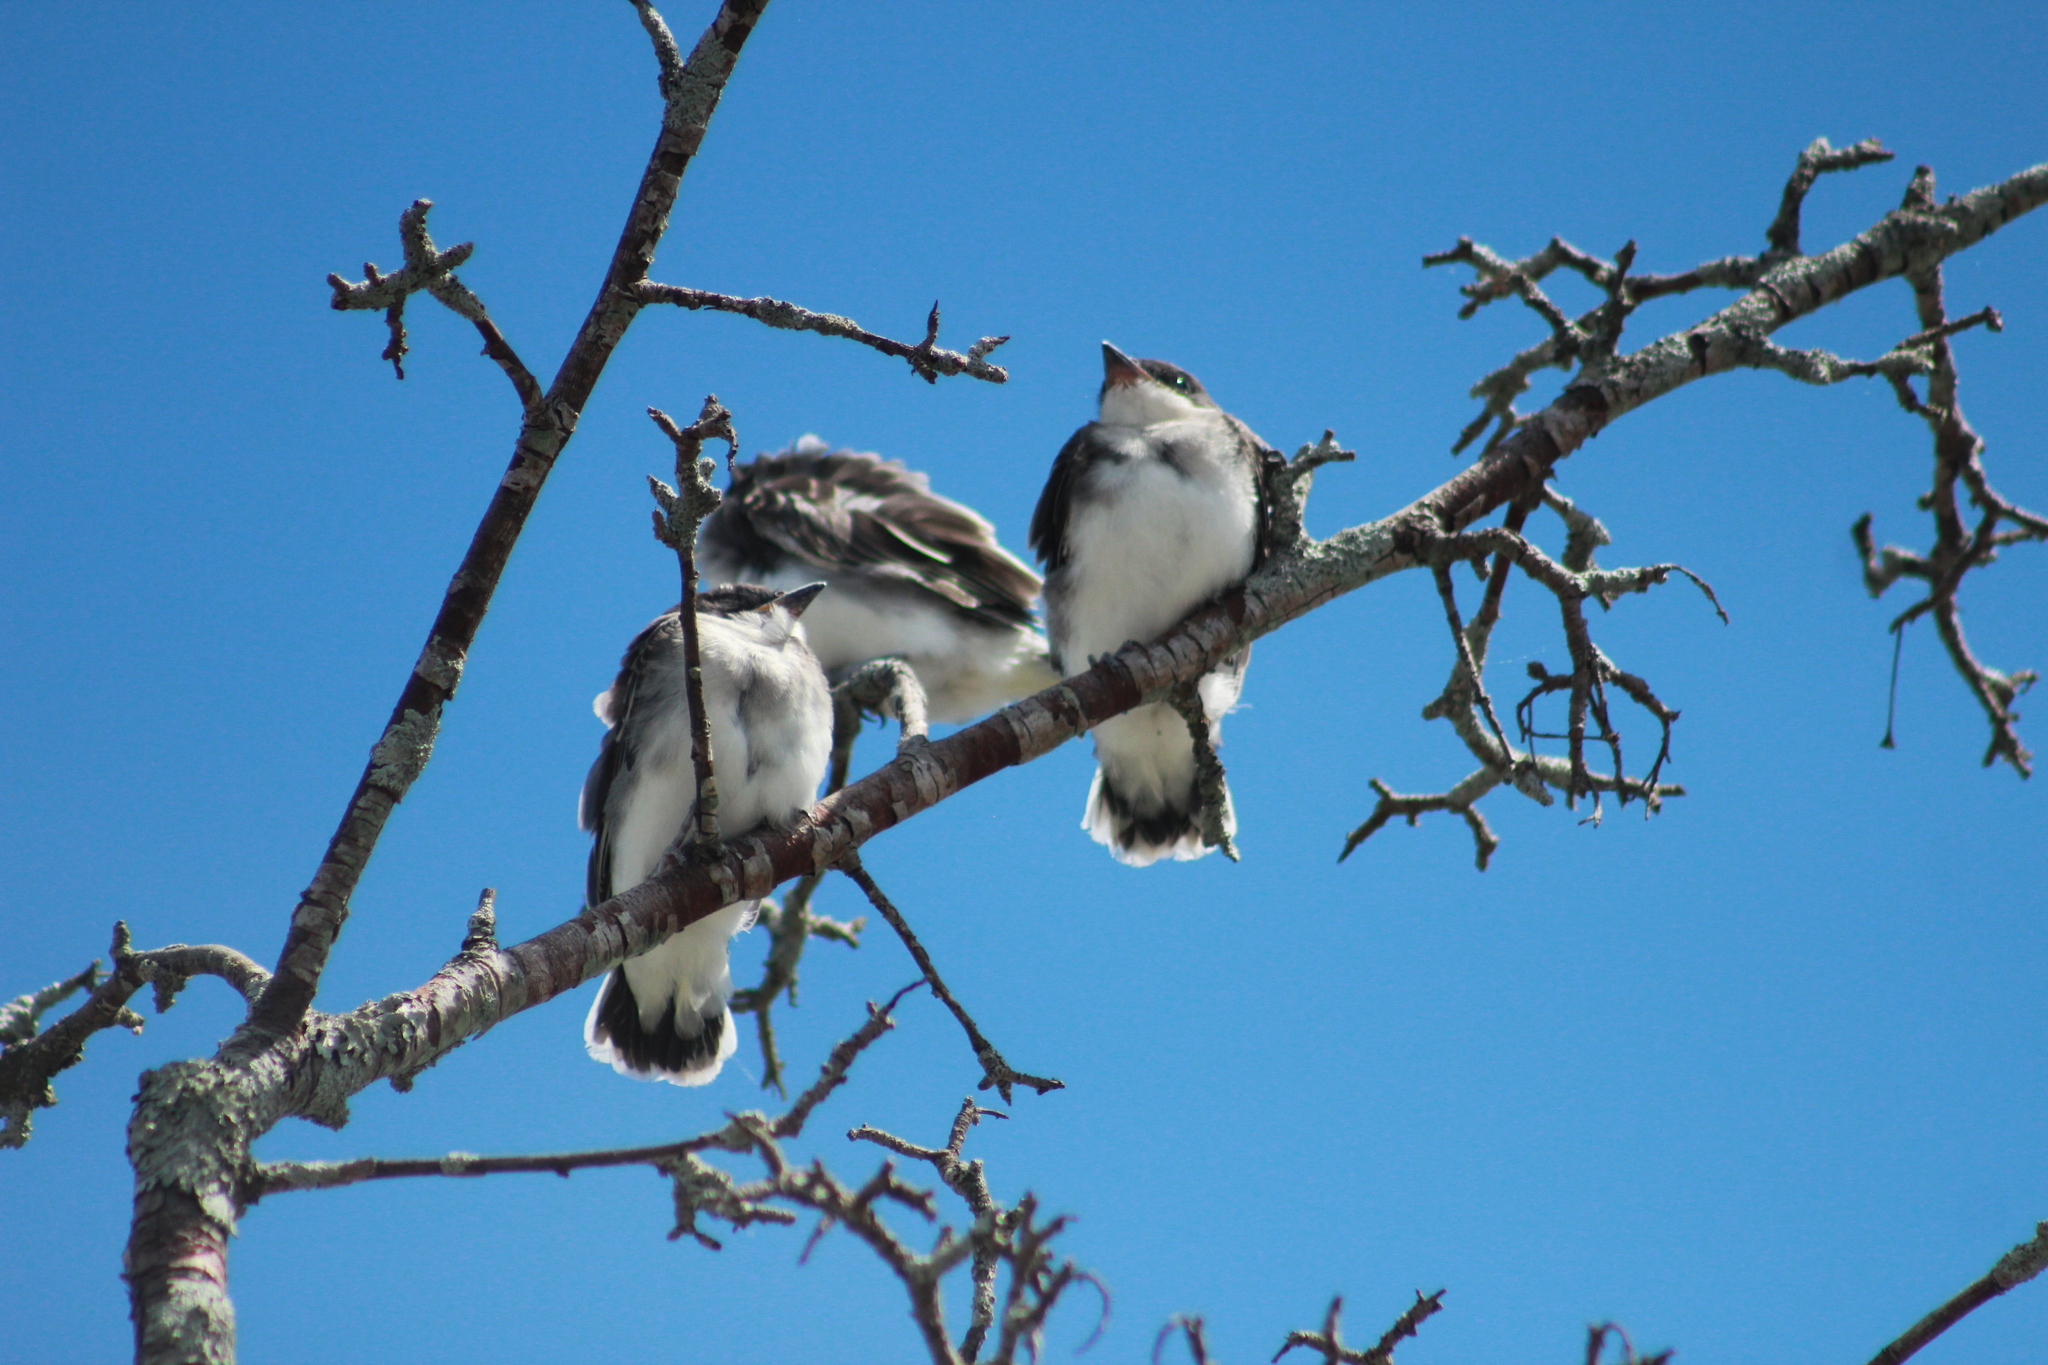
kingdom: Animalia
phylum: Chordata
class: Aves
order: Passeriformes
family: Tyrannidae
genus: Tyrannus
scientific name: Tyrannus tyrannus
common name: Eastern kingbird
